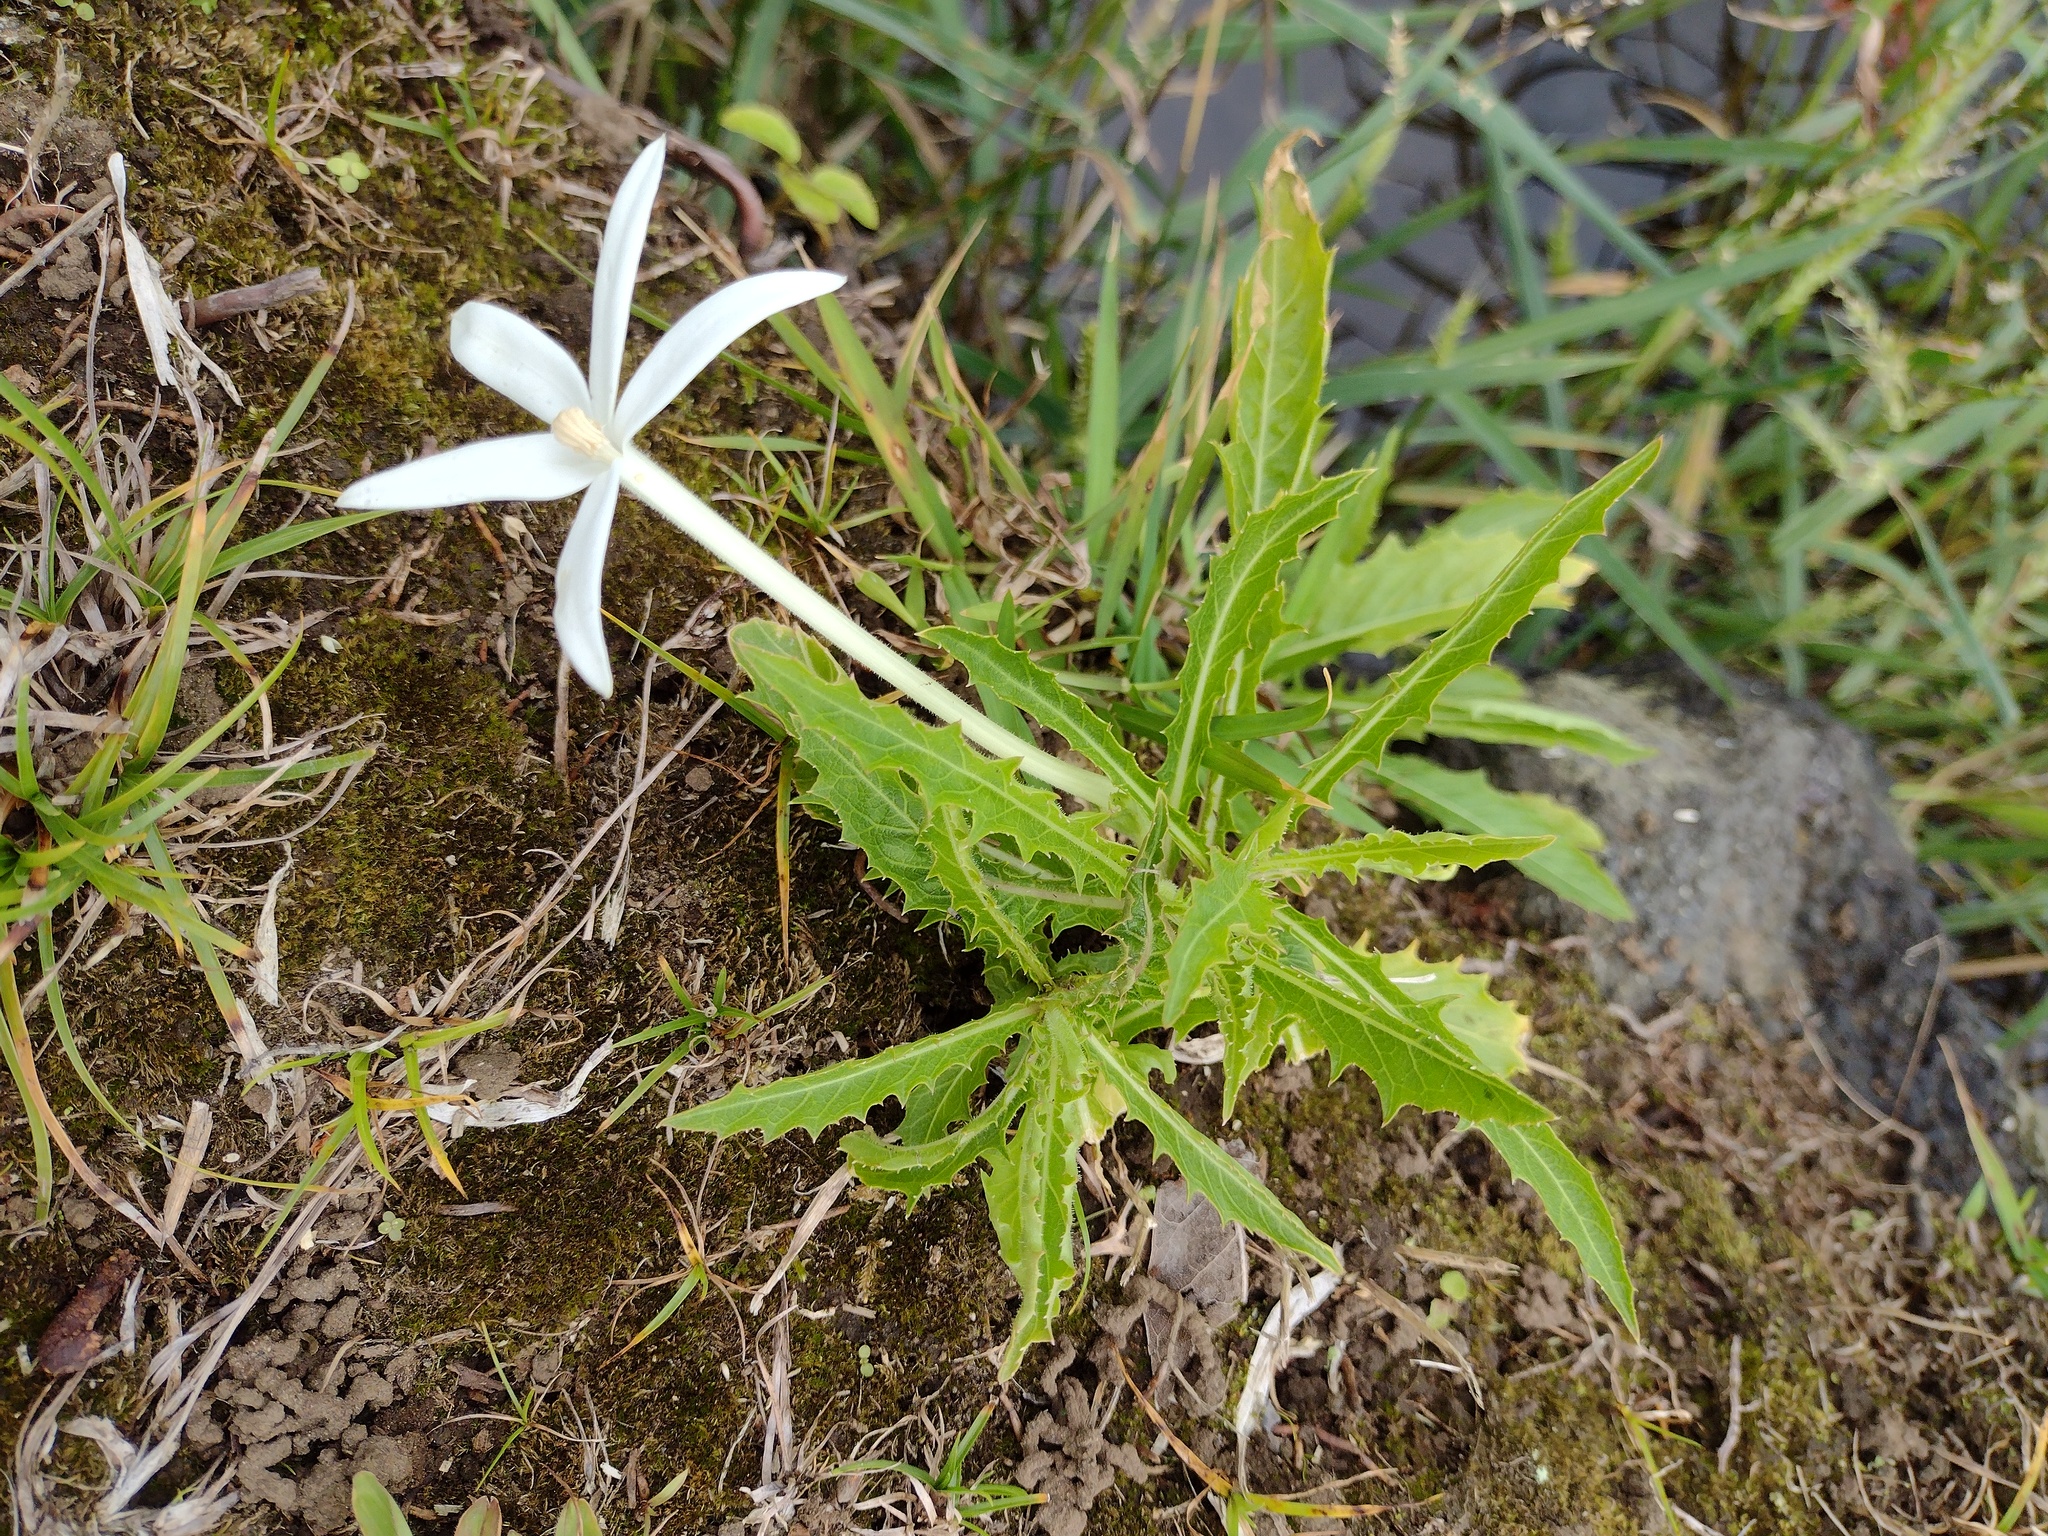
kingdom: Plantae
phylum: Tracheophyta
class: Magnoliopsida
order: Asterales
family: Campanulaceae
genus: Hippobroma
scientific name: Hippobroma longiflora
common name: Madamfate
